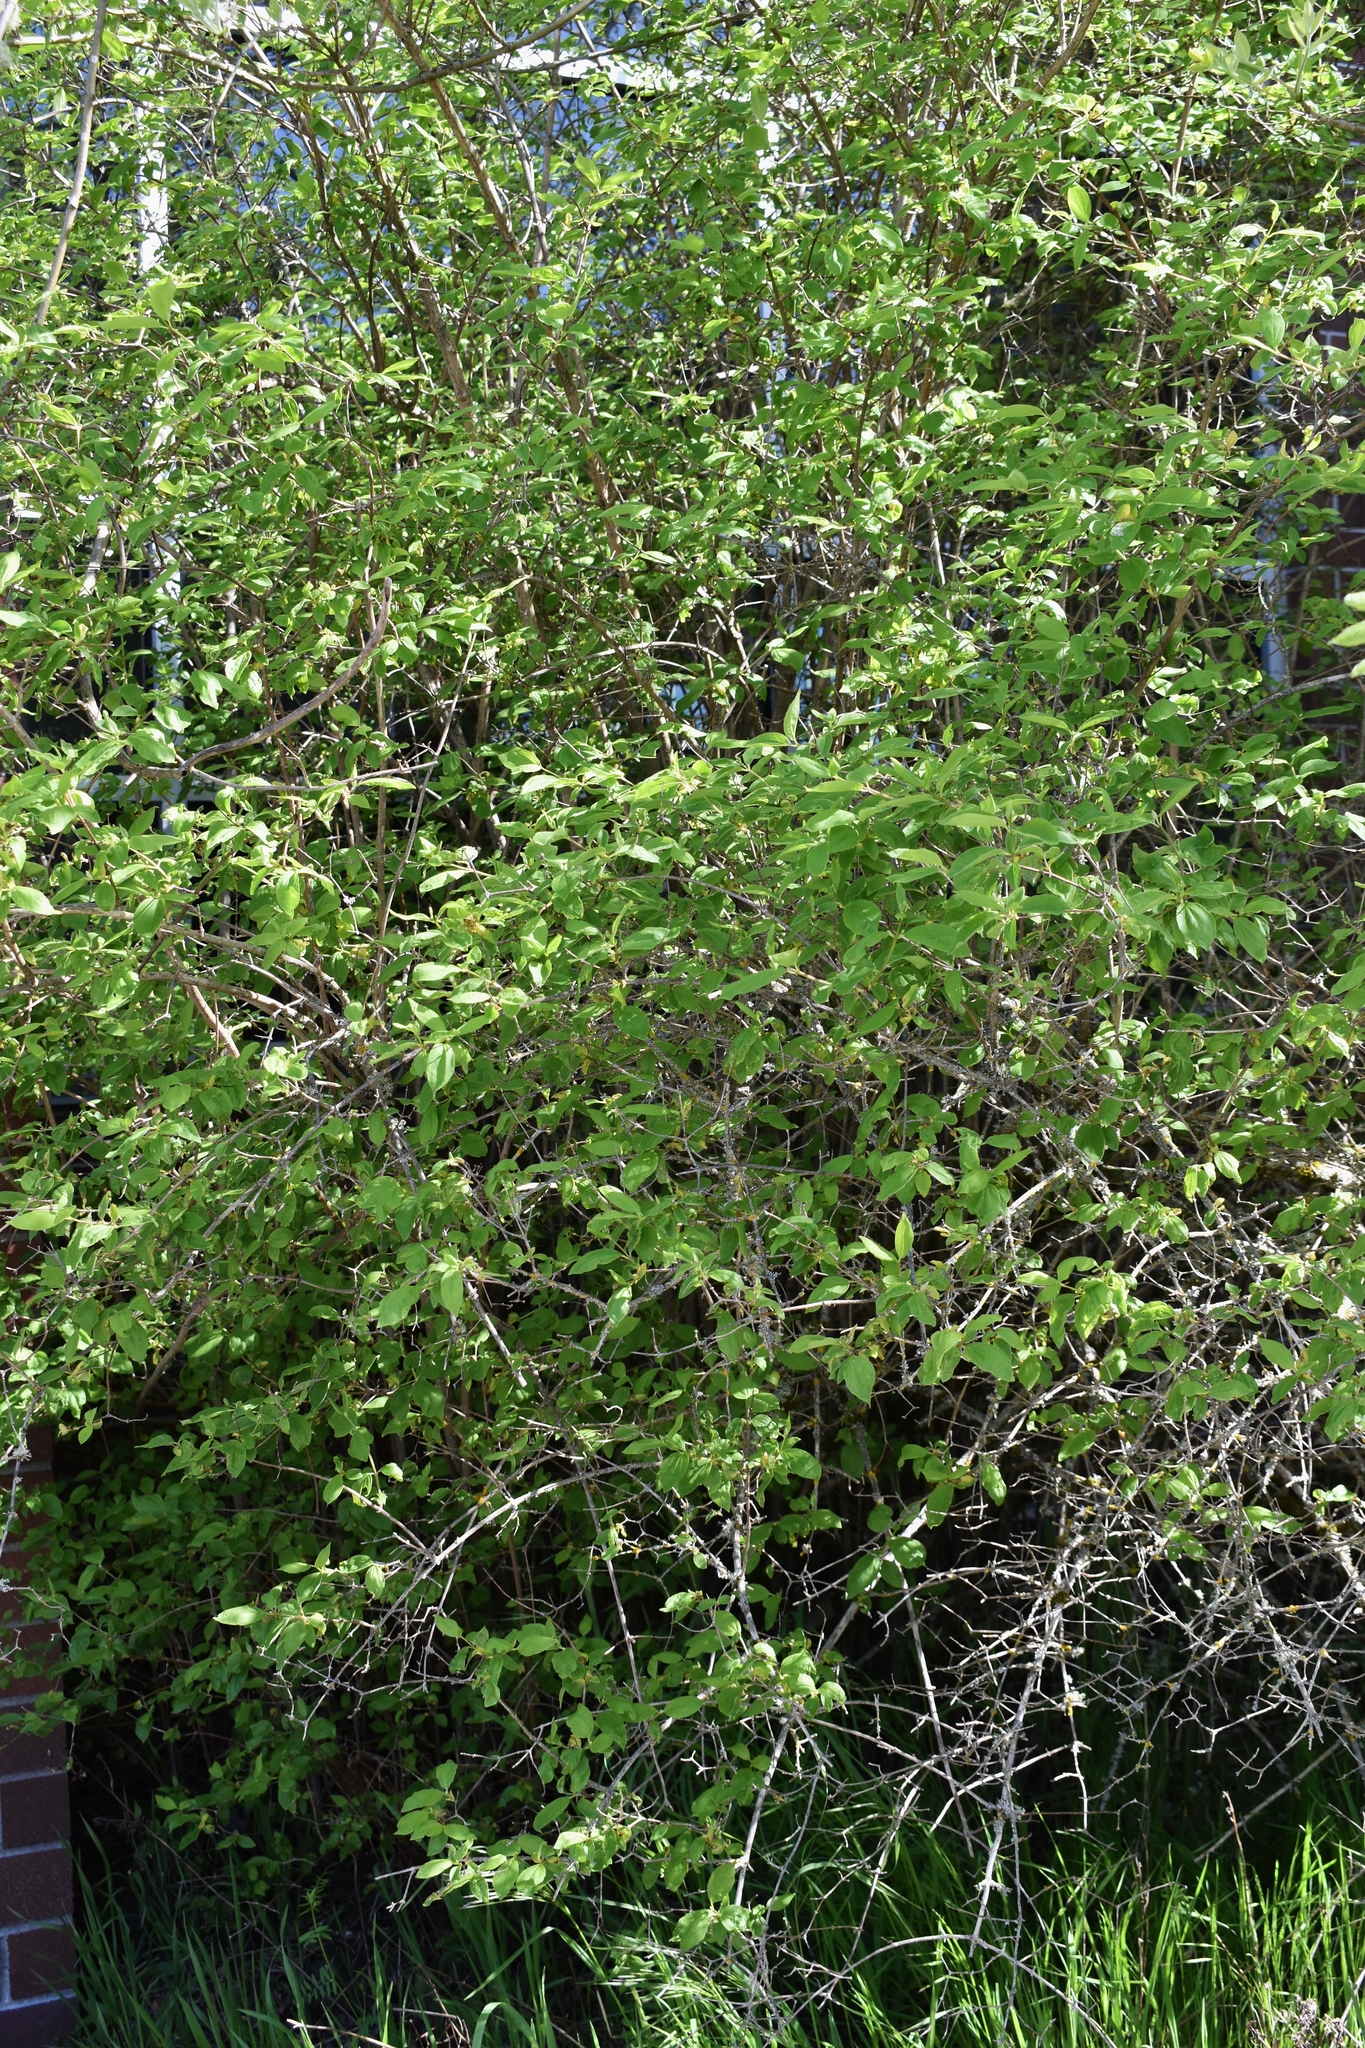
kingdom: Plantae
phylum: Tracheophyta
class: Magnoliopsida
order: Cornales
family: Hydrangeaceae
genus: Philadelphus
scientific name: Philadelphus lewisii
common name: Lewis's mock orange
